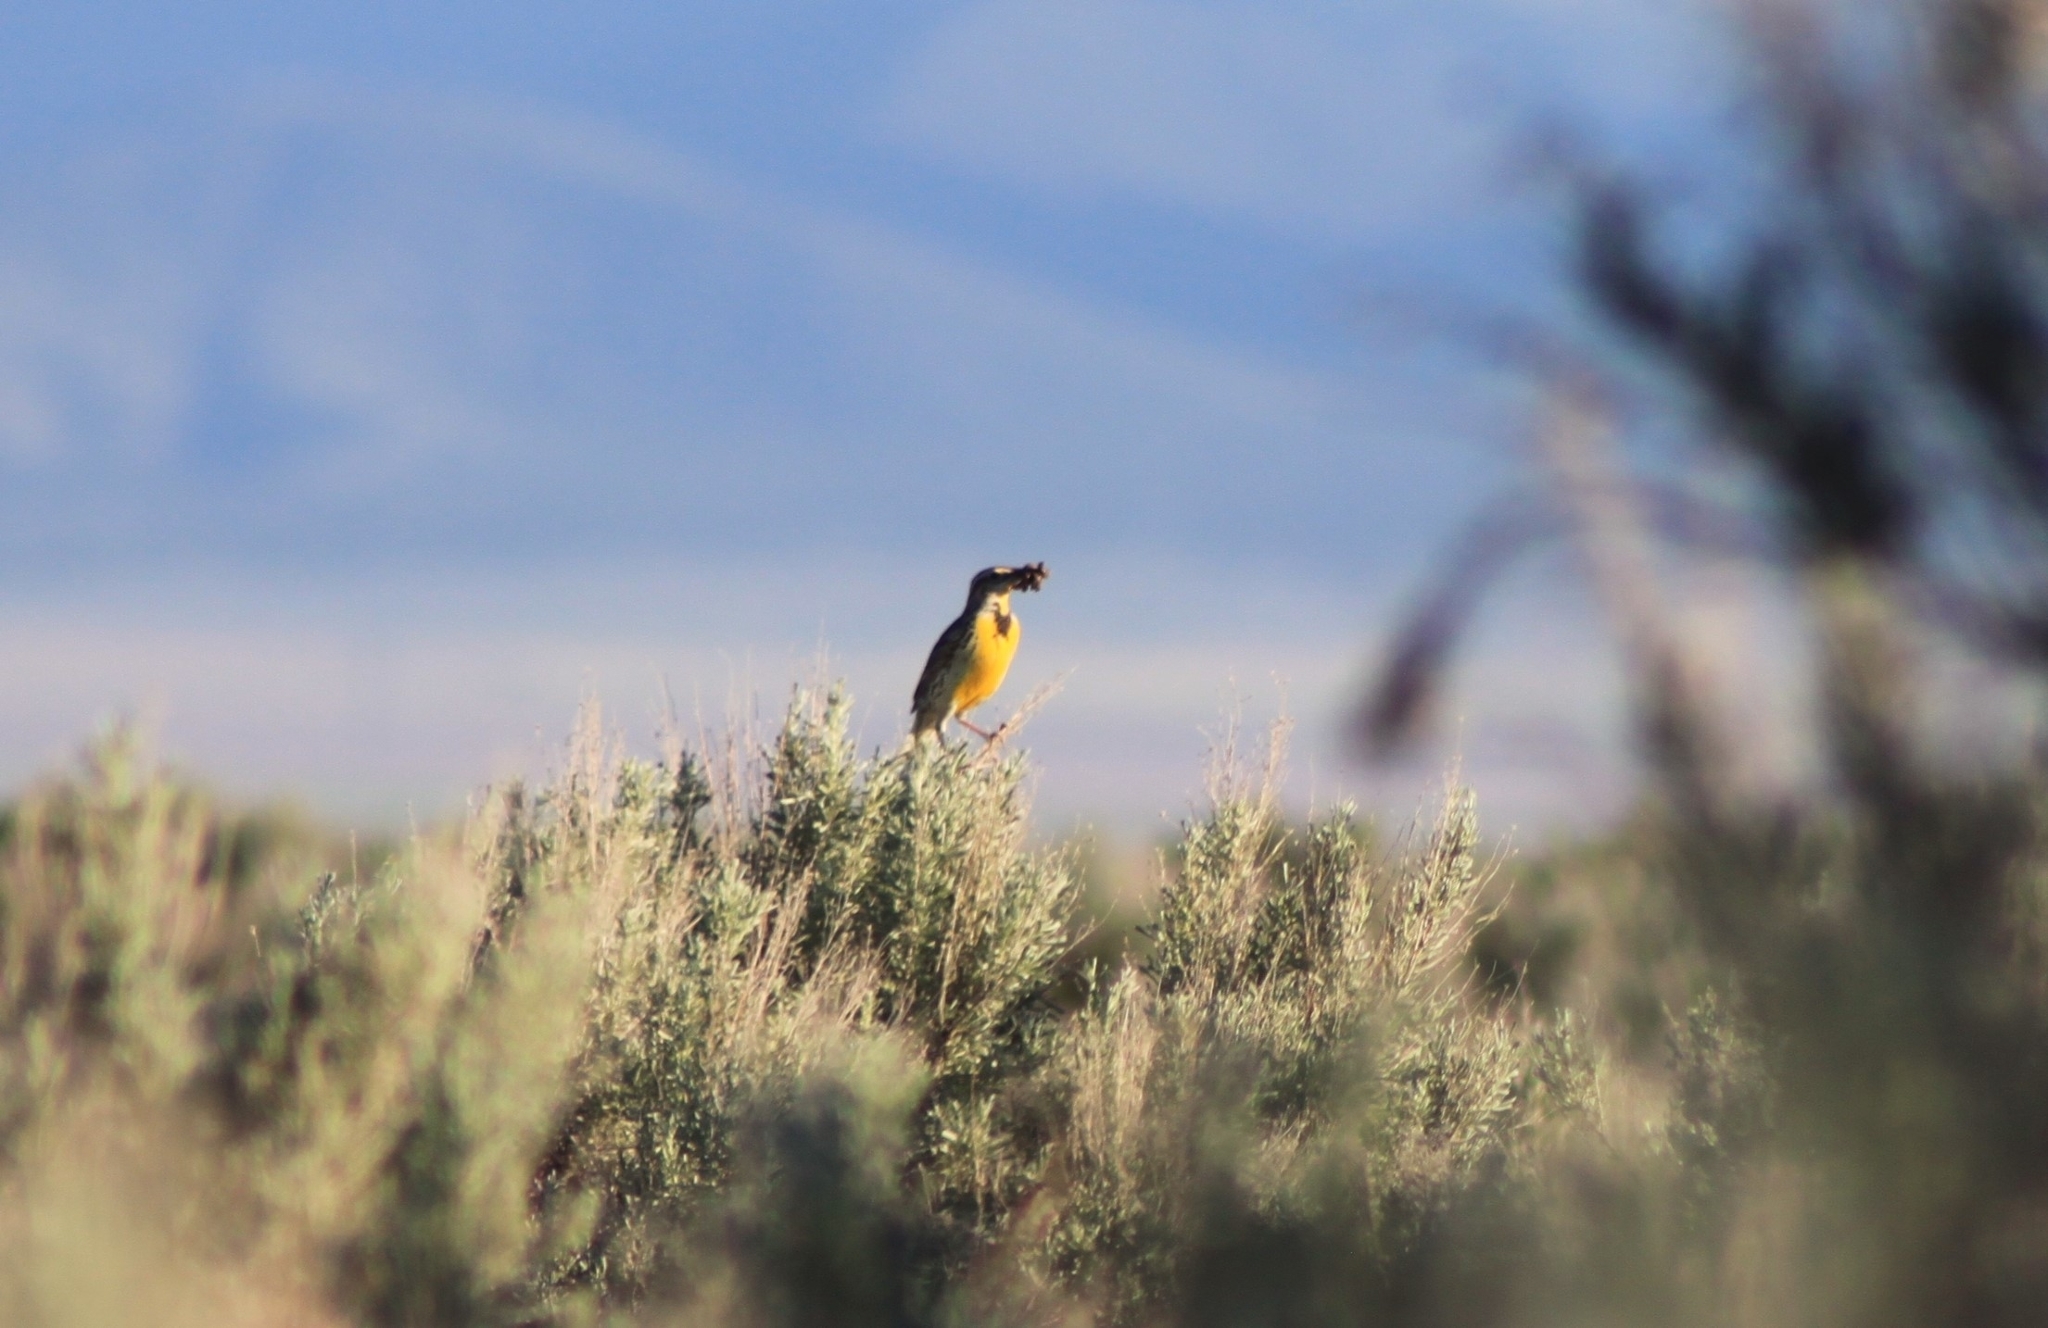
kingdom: Animalia
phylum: Chordata
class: Aves
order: Passeriformes
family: Icteridae
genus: Sturnella
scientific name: Sturnella neglecta
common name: Western meadowlark
